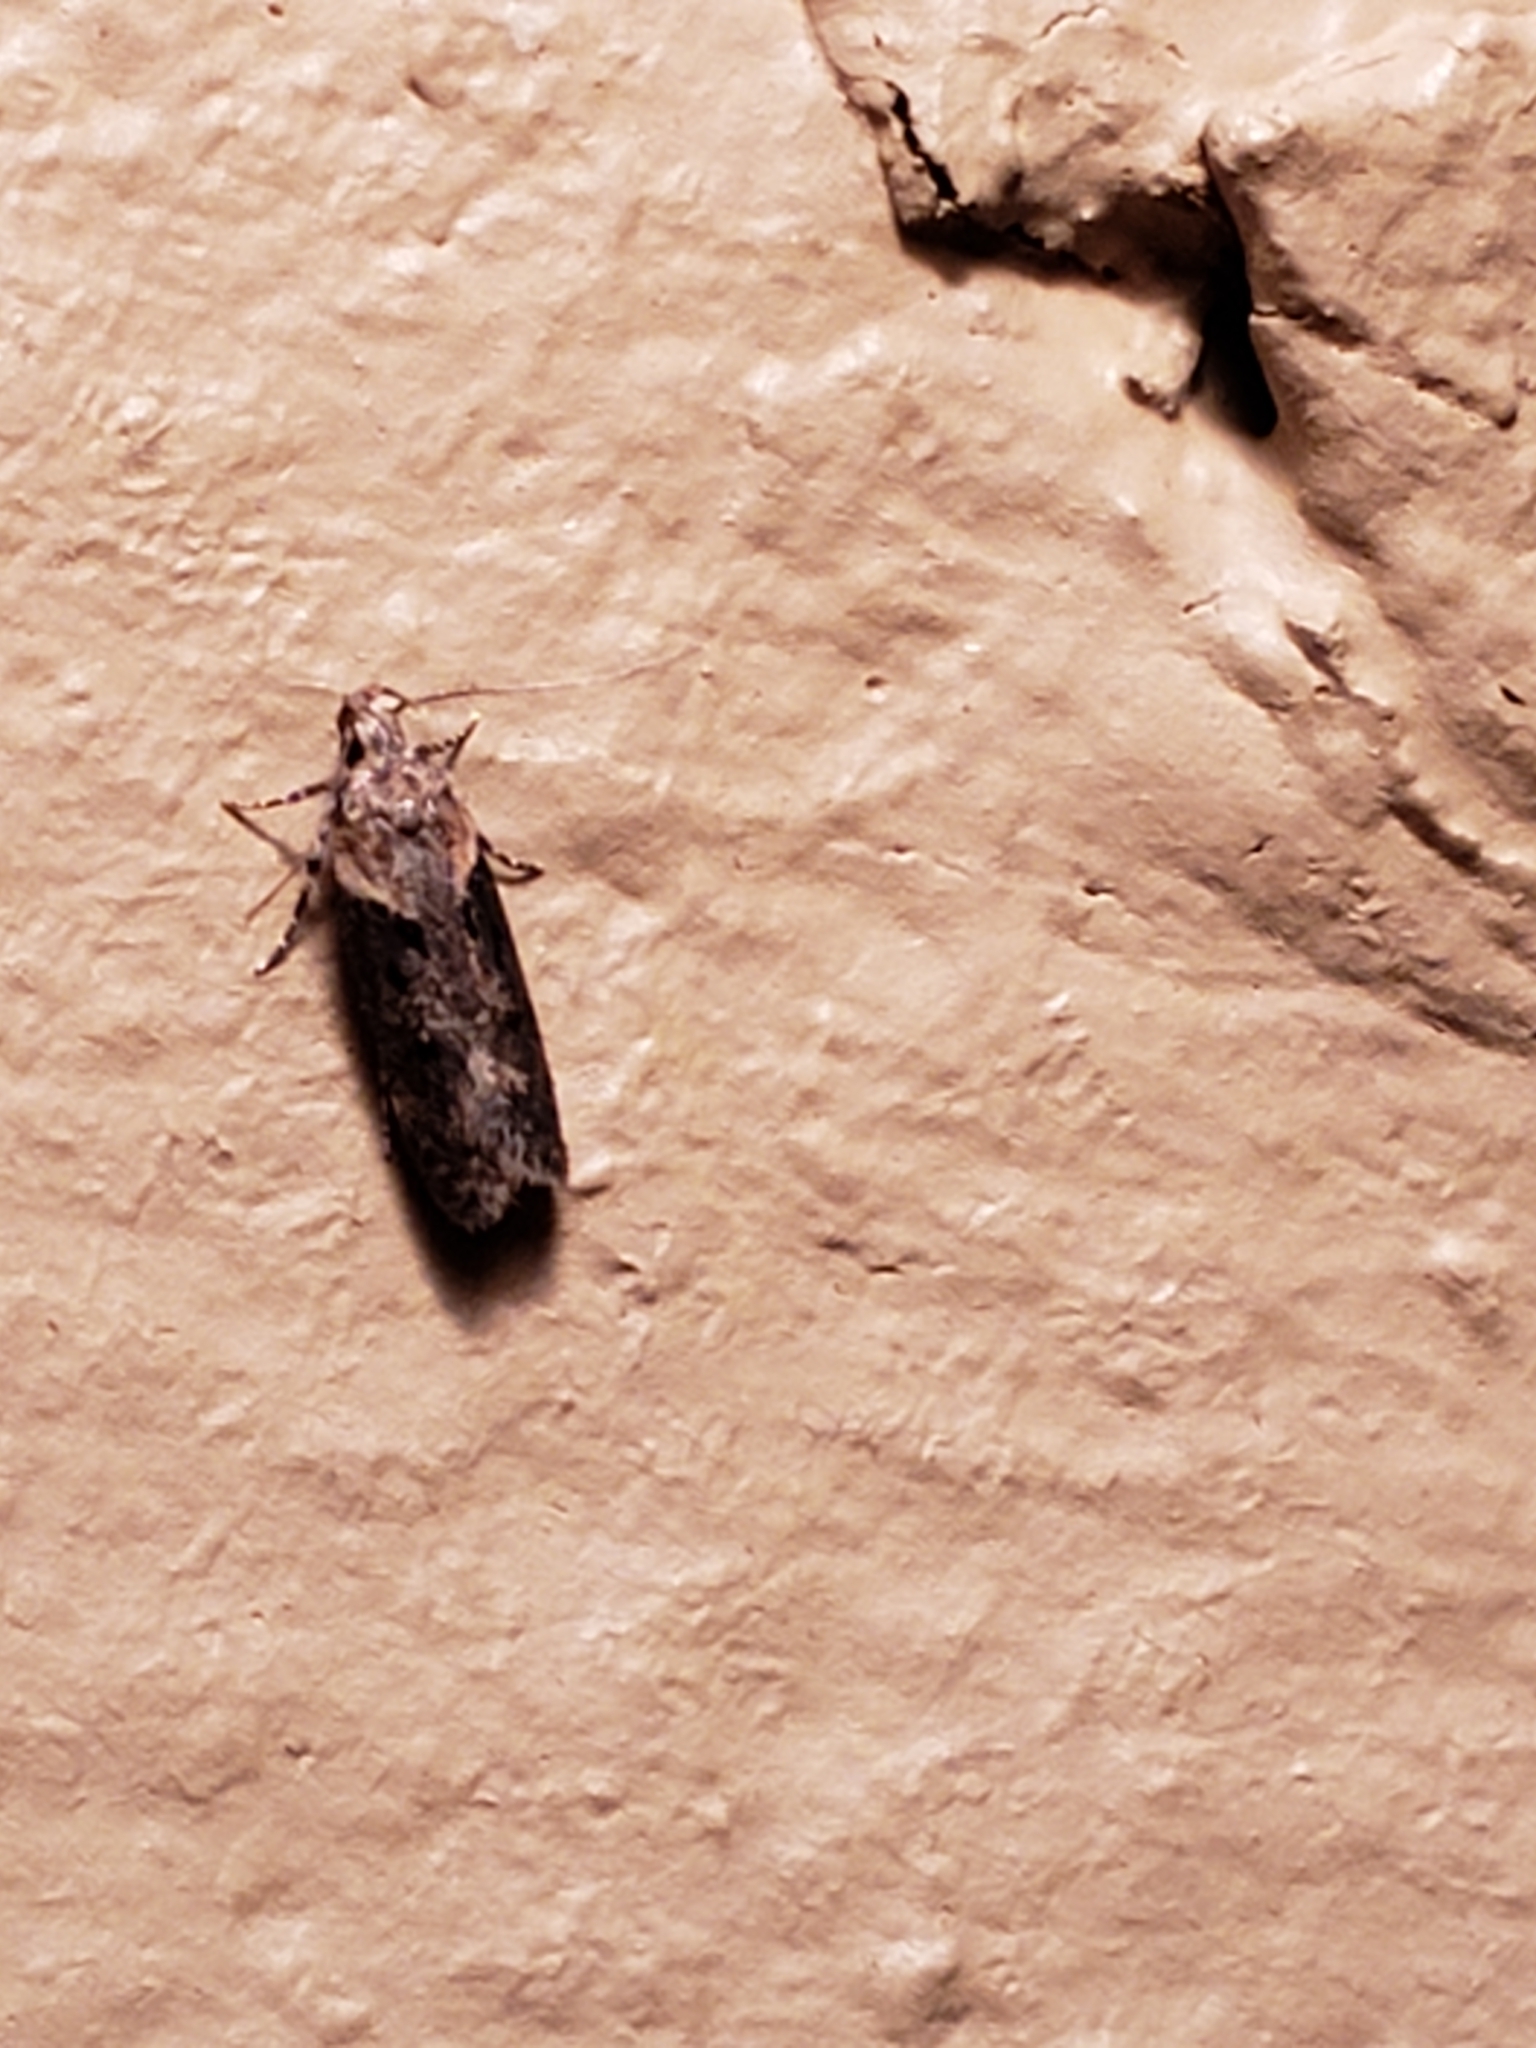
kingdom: Animalia
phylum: Arthropoda
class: Insecta
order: Lepidoptera
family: Gelechiidae
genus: Chionodes
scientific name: Chionodes mediofuscella
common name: Black-smudged chionodes moth
